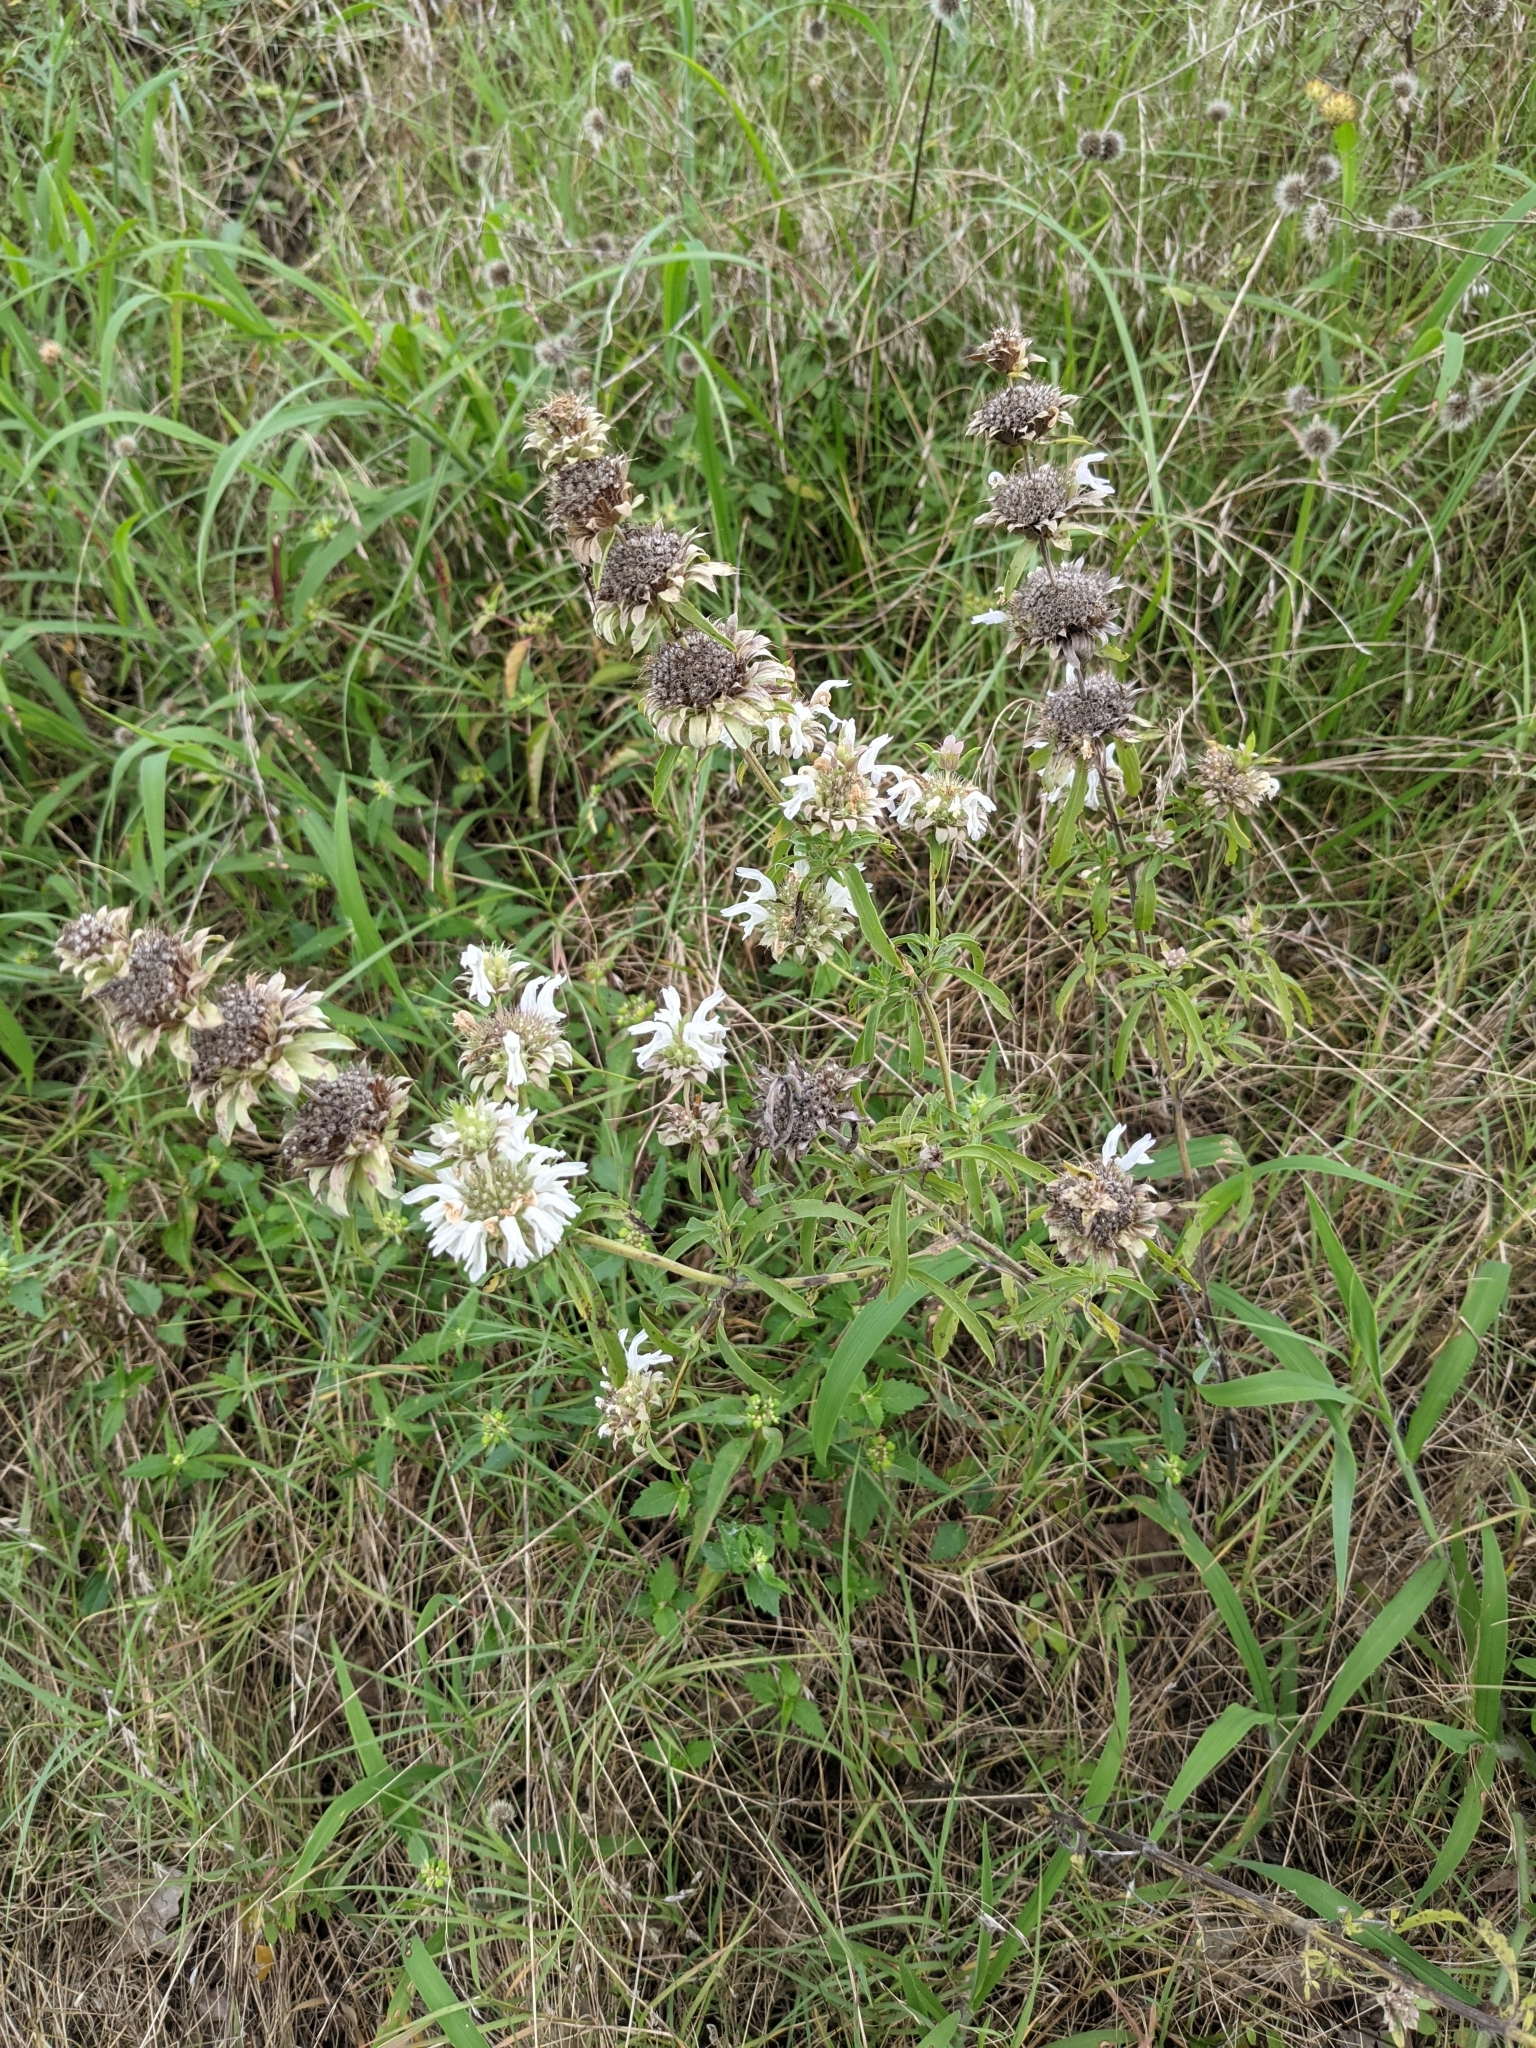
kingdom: Plantae
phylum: Tracheophyta
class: Magnoliopsida
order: Lamiales
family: Lamiaceae
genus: Monarda
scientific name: Monarda citriodora
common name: Lemon beebalm
